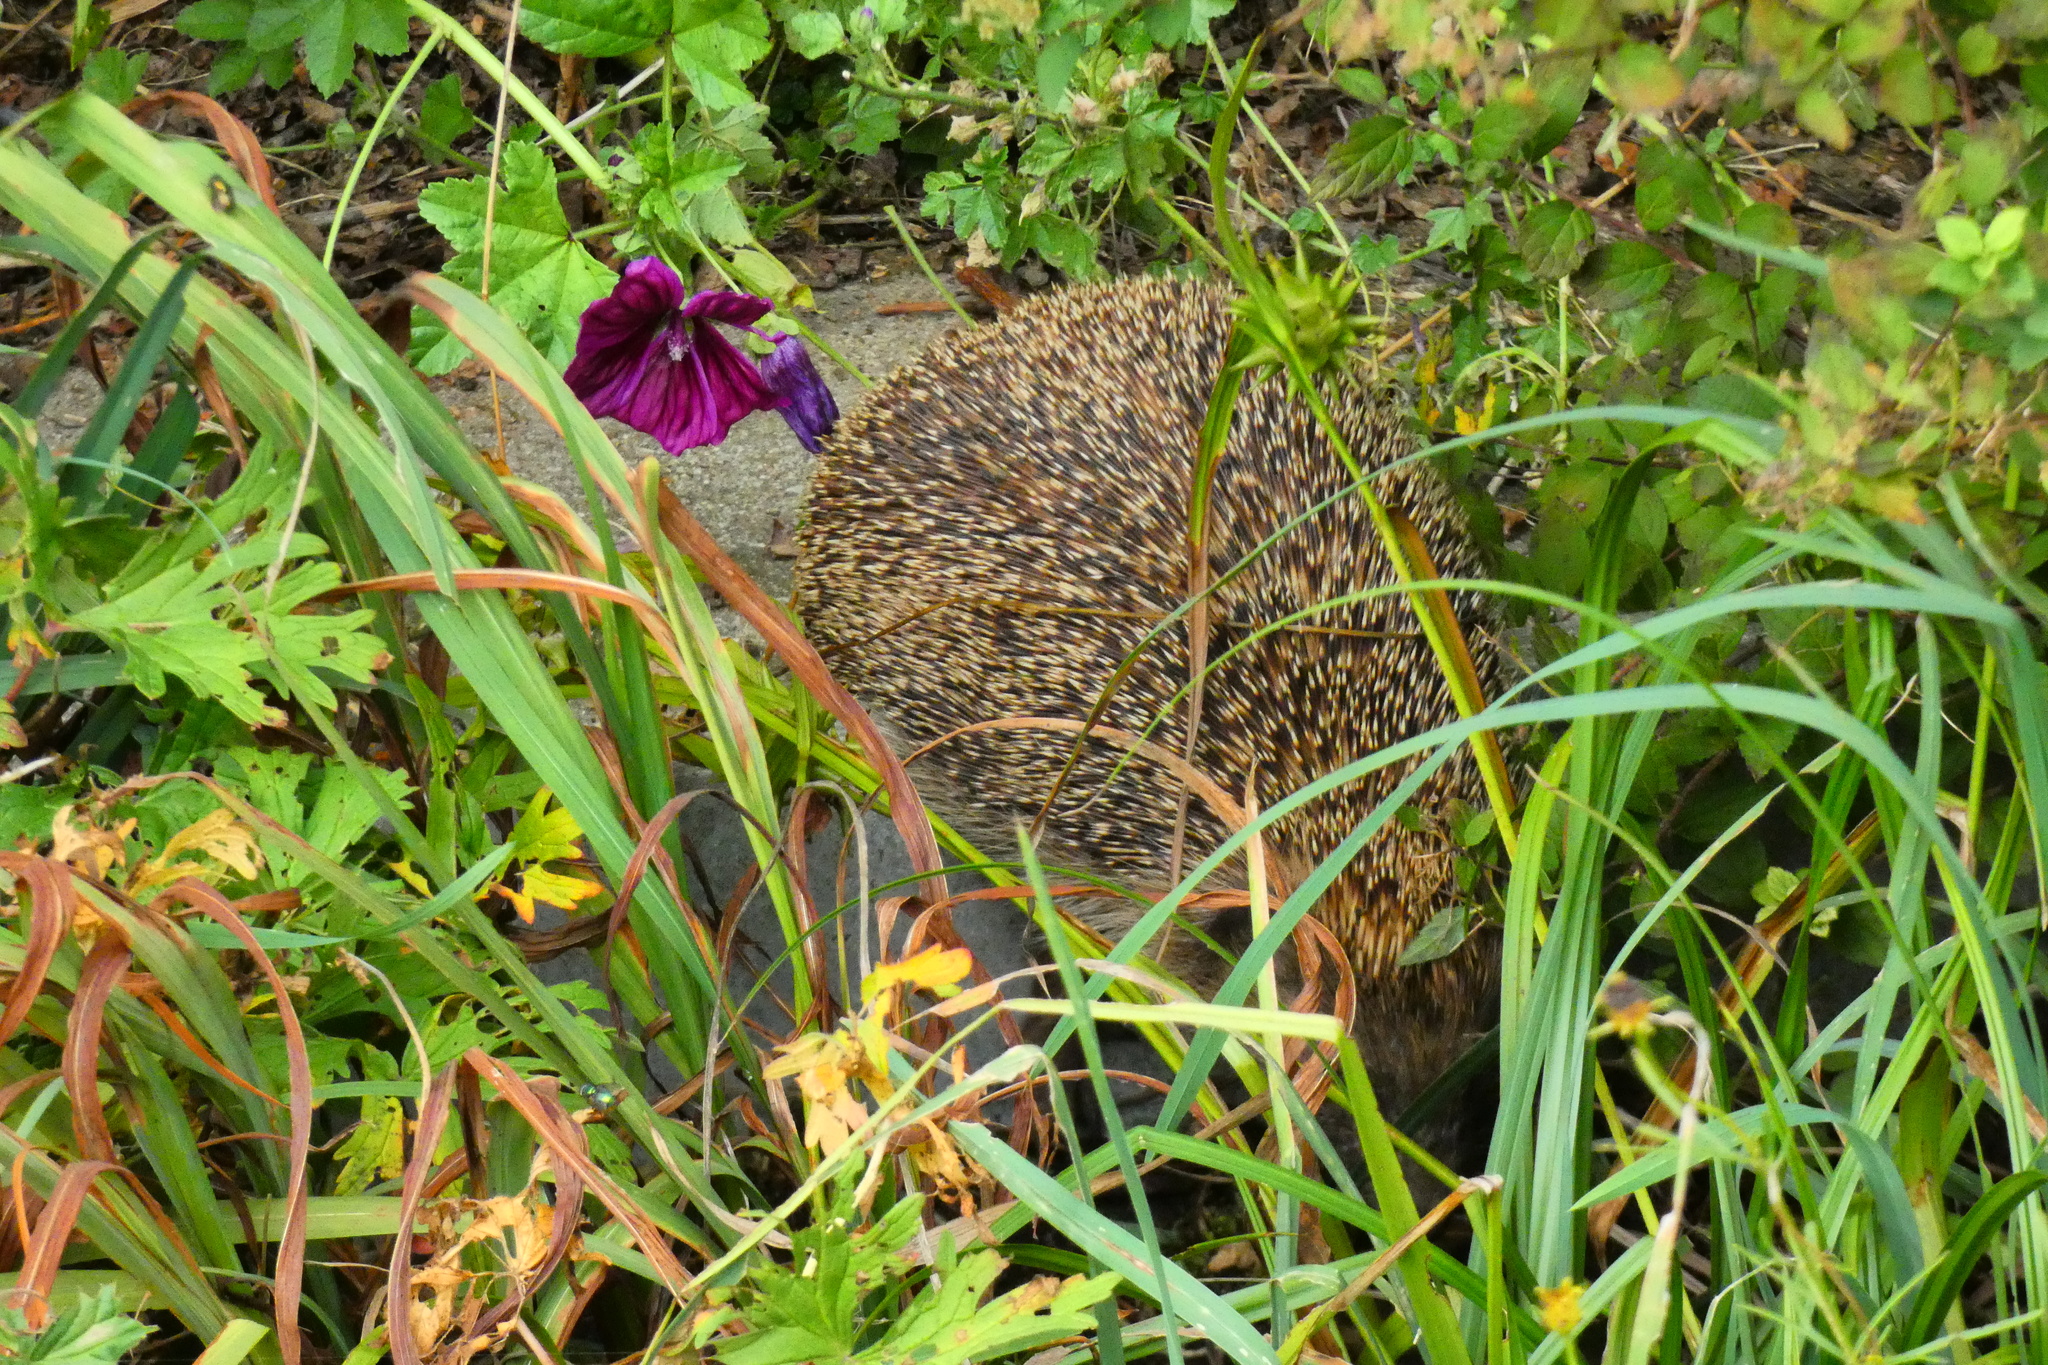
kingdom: Animalia
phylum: Chordata
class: Mammalia
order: Erinaceomorpha
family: Erinaceidae
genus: Erinaceus
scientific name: Erinaceus europaeus
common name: West european hedgehog
